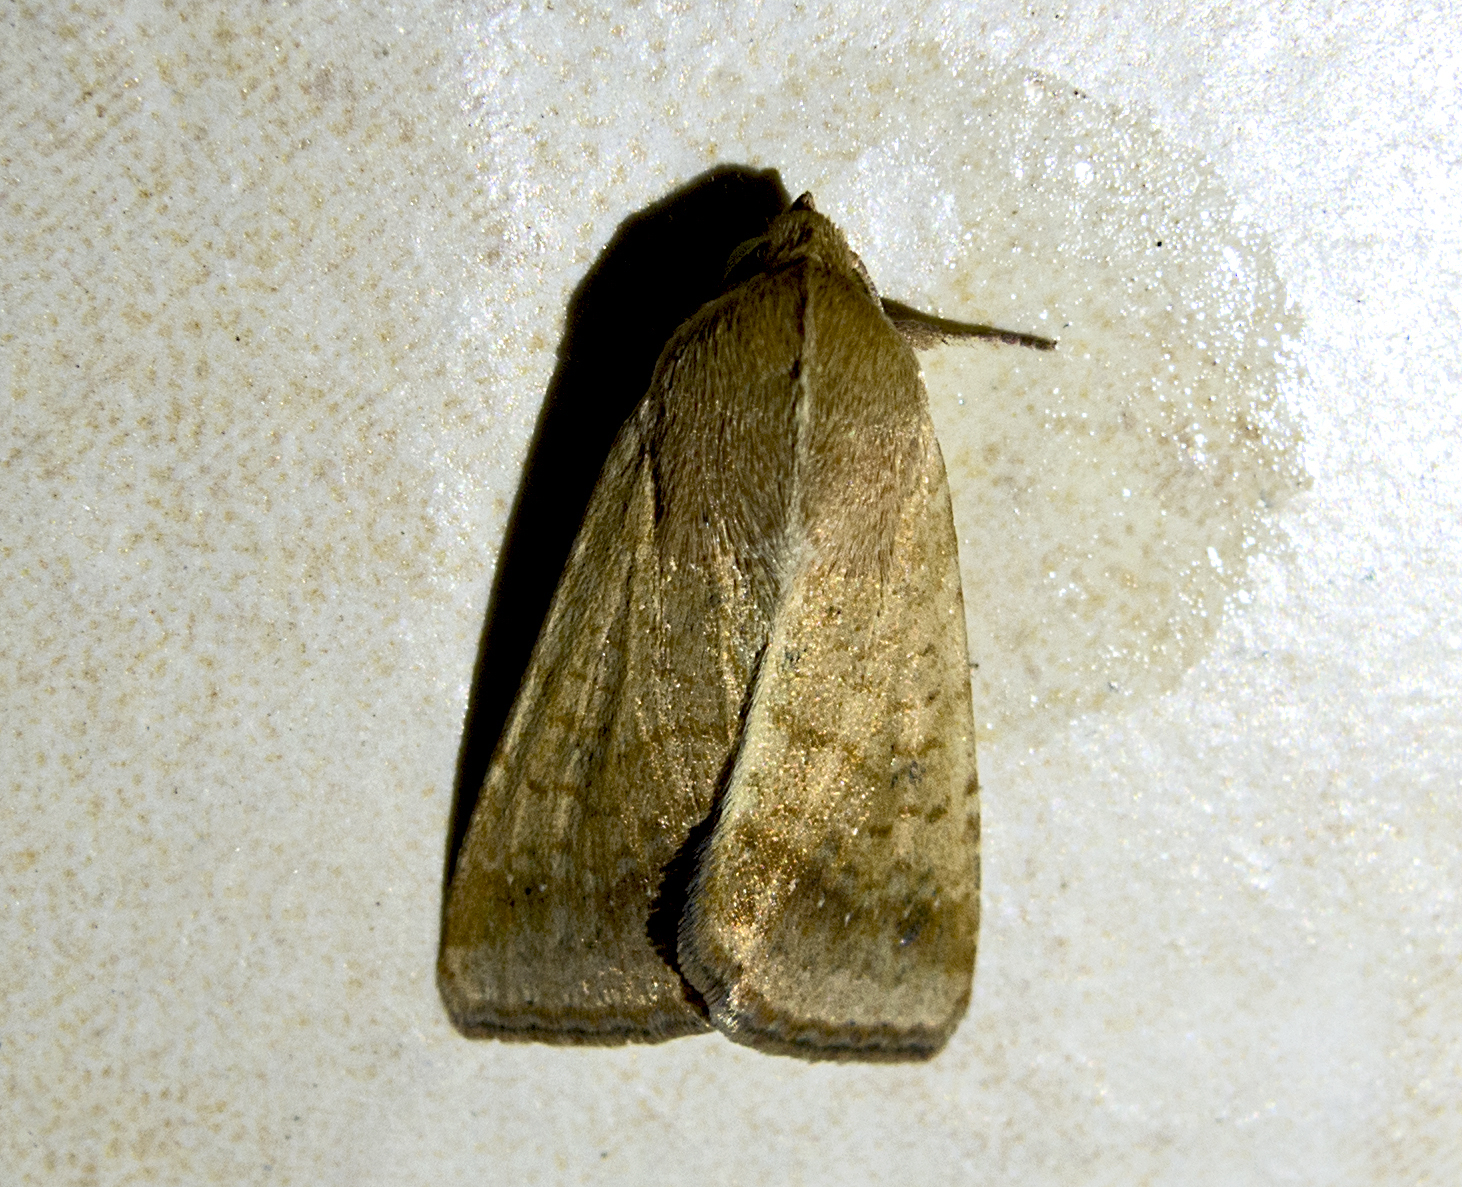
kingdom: Animalia
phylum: Arthropoda
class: Insecta
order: Lepidoptera
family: Noctuidae
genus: Helicoverpa
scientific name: Helicoverpa armigera
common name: Cotton bollworm
